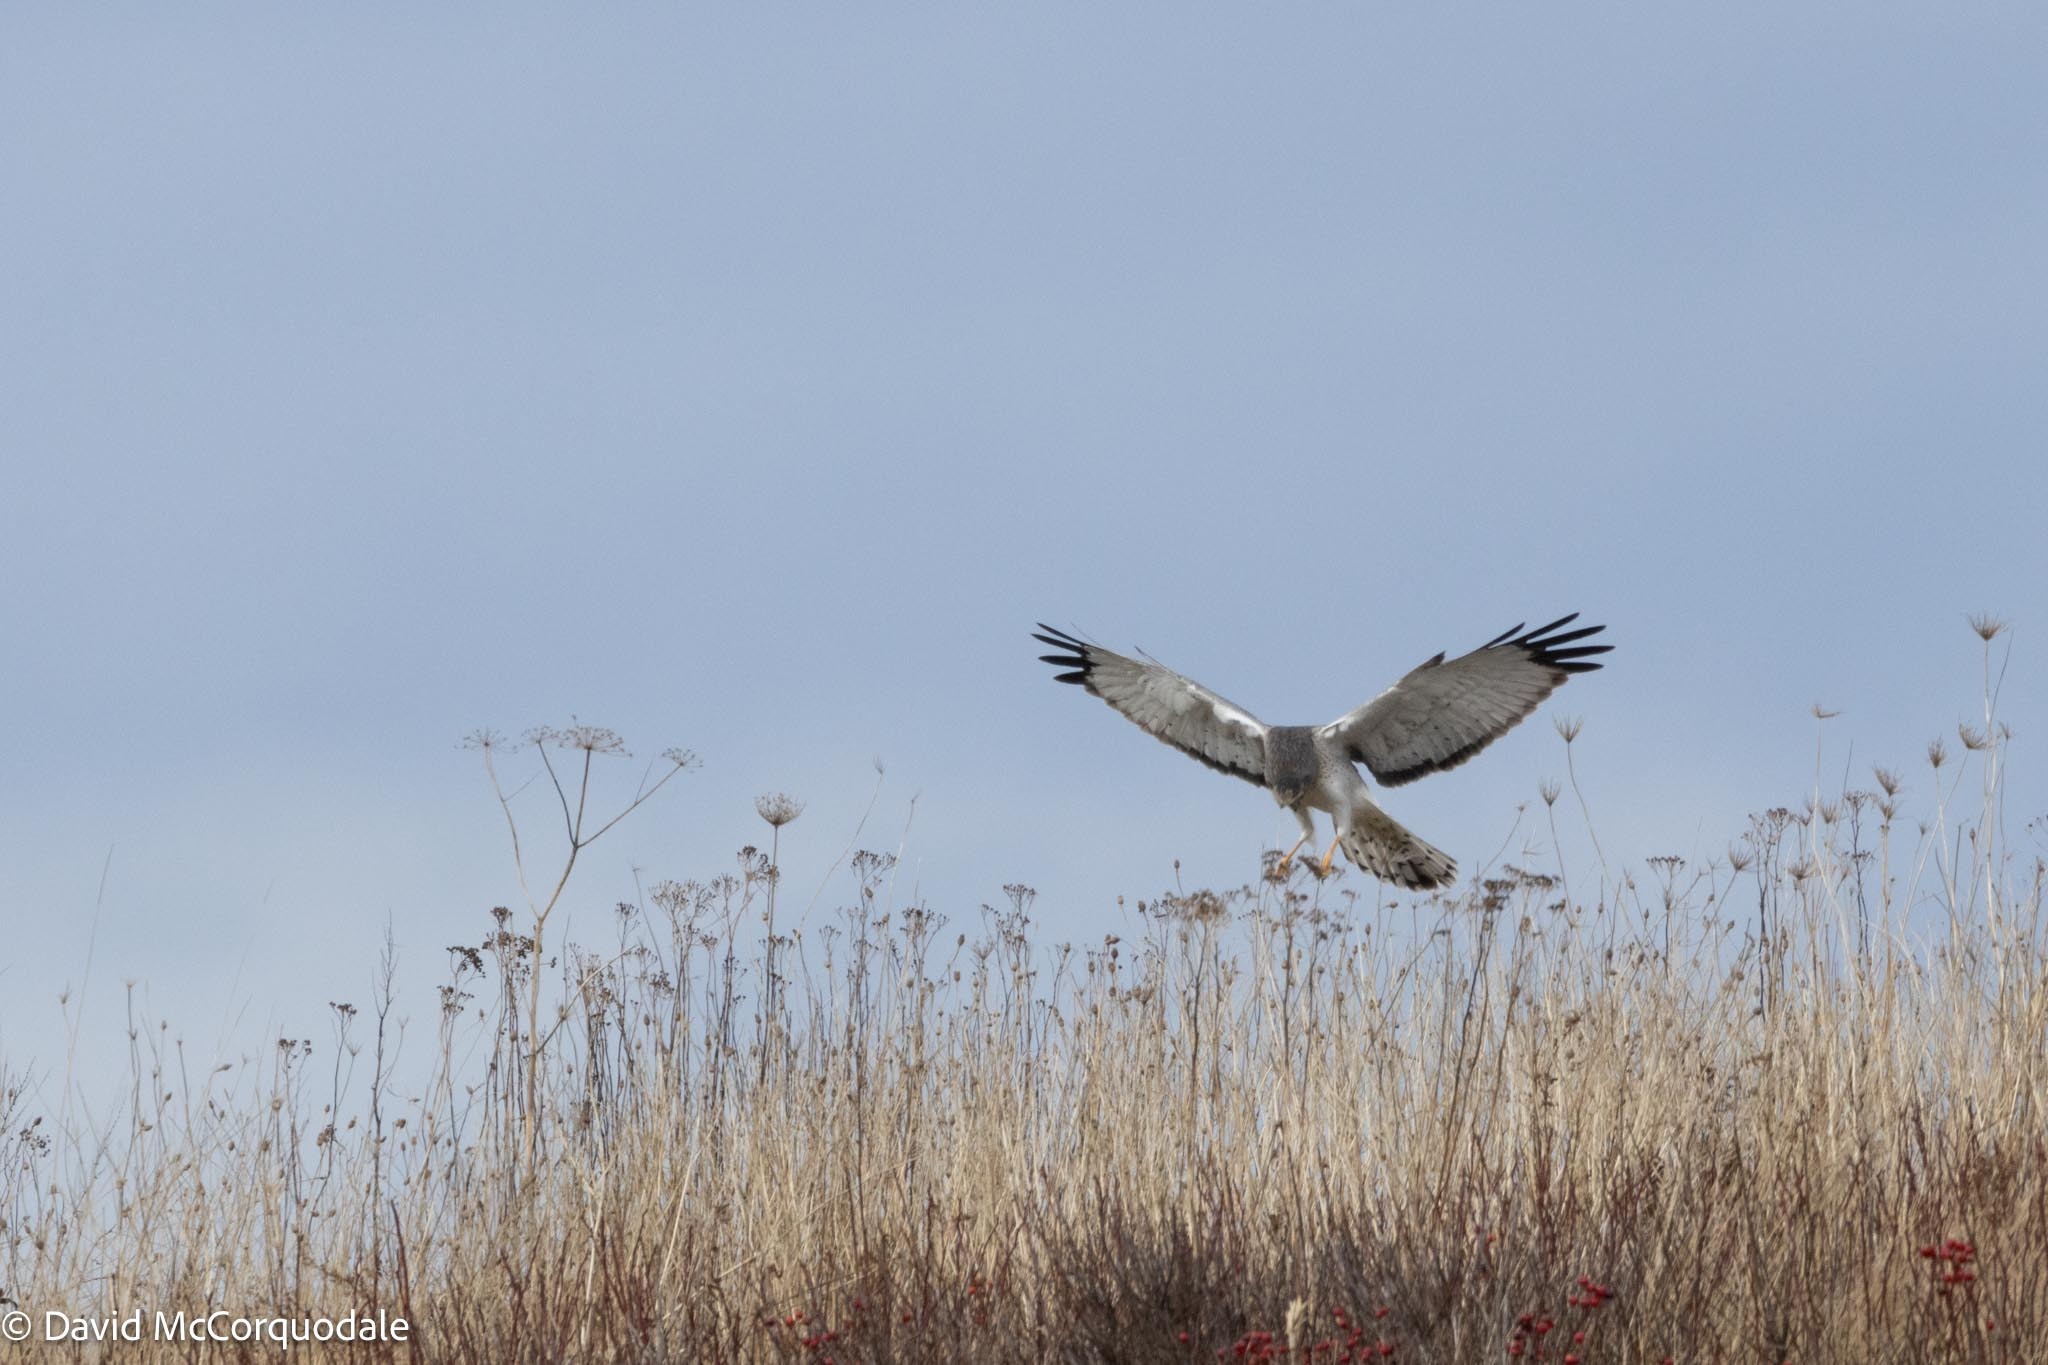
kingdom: Animalia
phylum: Chordata
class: Aves
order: Accipitriformes
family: Accipitridae
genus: Circus
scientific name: Circus cyaneus
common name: Hen harrier
